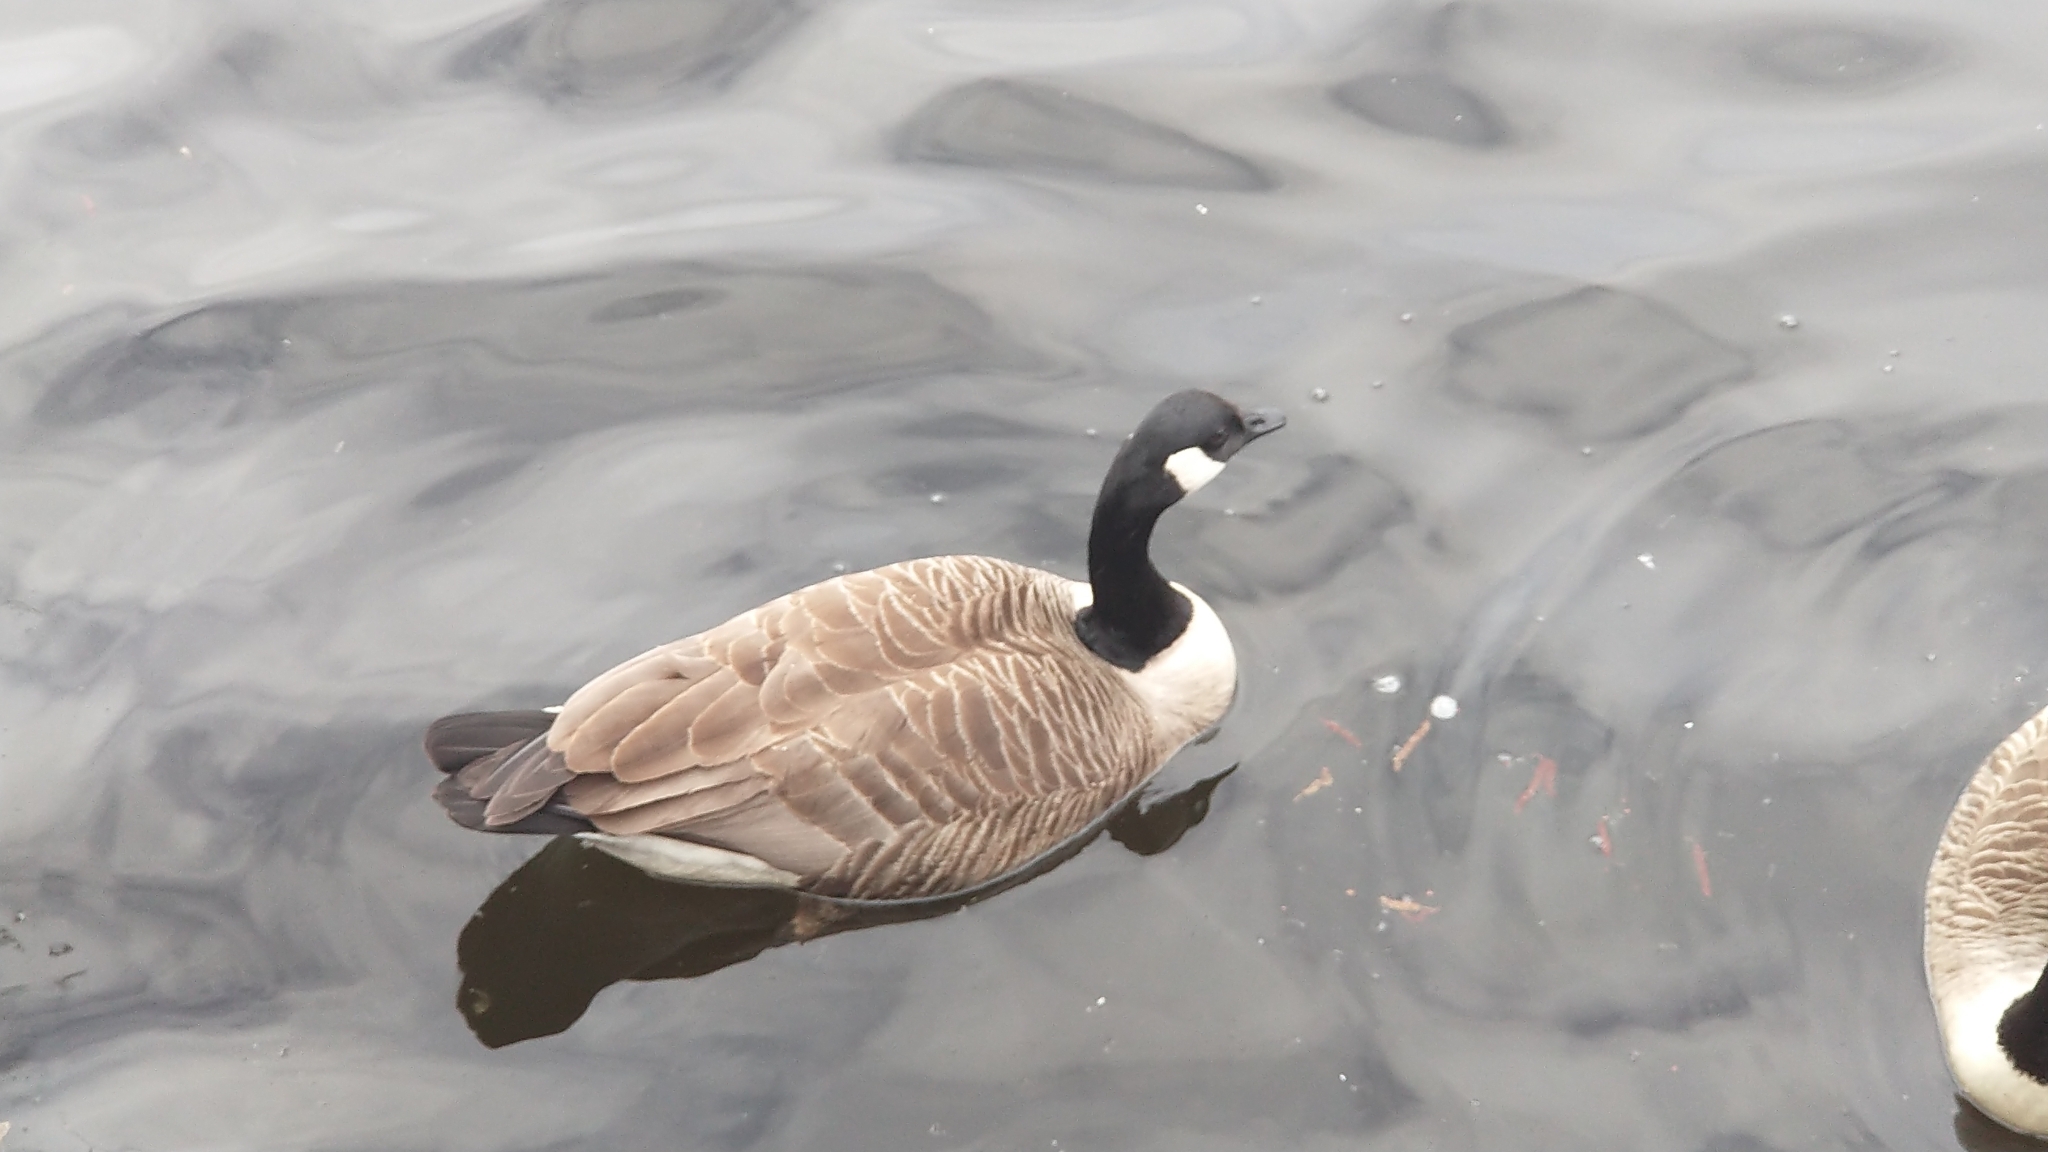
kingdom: Animalia
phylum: Chordata
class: Aves
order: Anseriformes
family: Anatidae
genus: Branta
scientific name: Branta canadensis
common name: Canada goose
